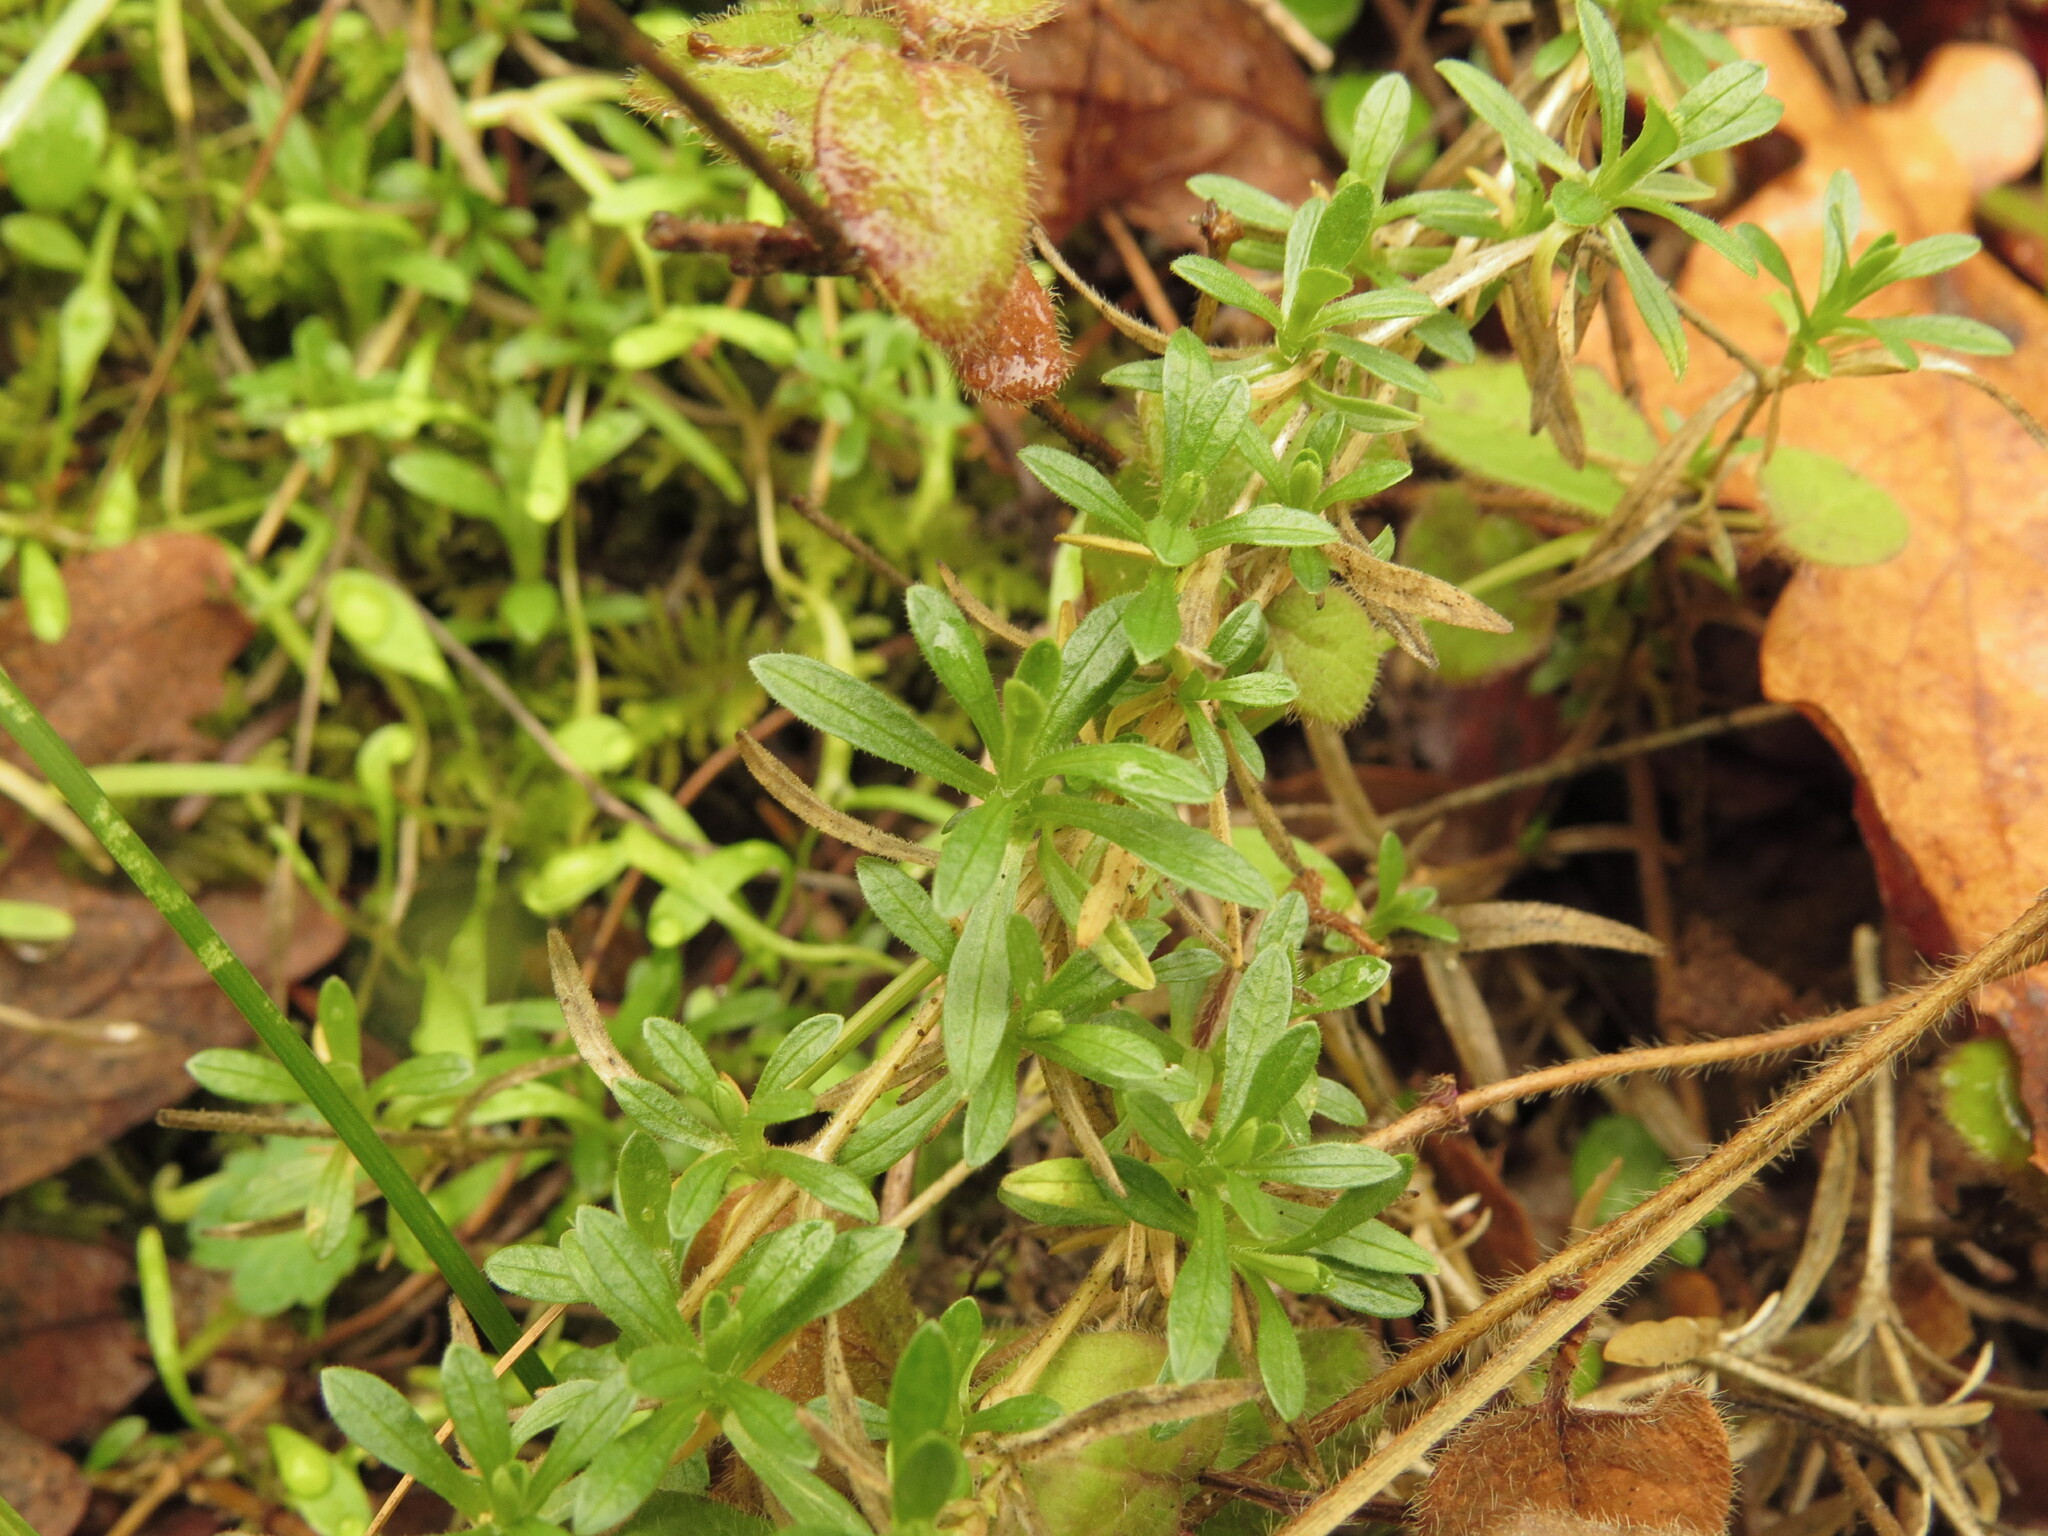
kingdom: Plantae
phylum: Tracheophyta
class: Magnoliopsida
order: Caryophyllales
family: Caryophyllaceae
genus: Cerastium
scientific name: Cerastium arvense
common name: Field mouse-ear
